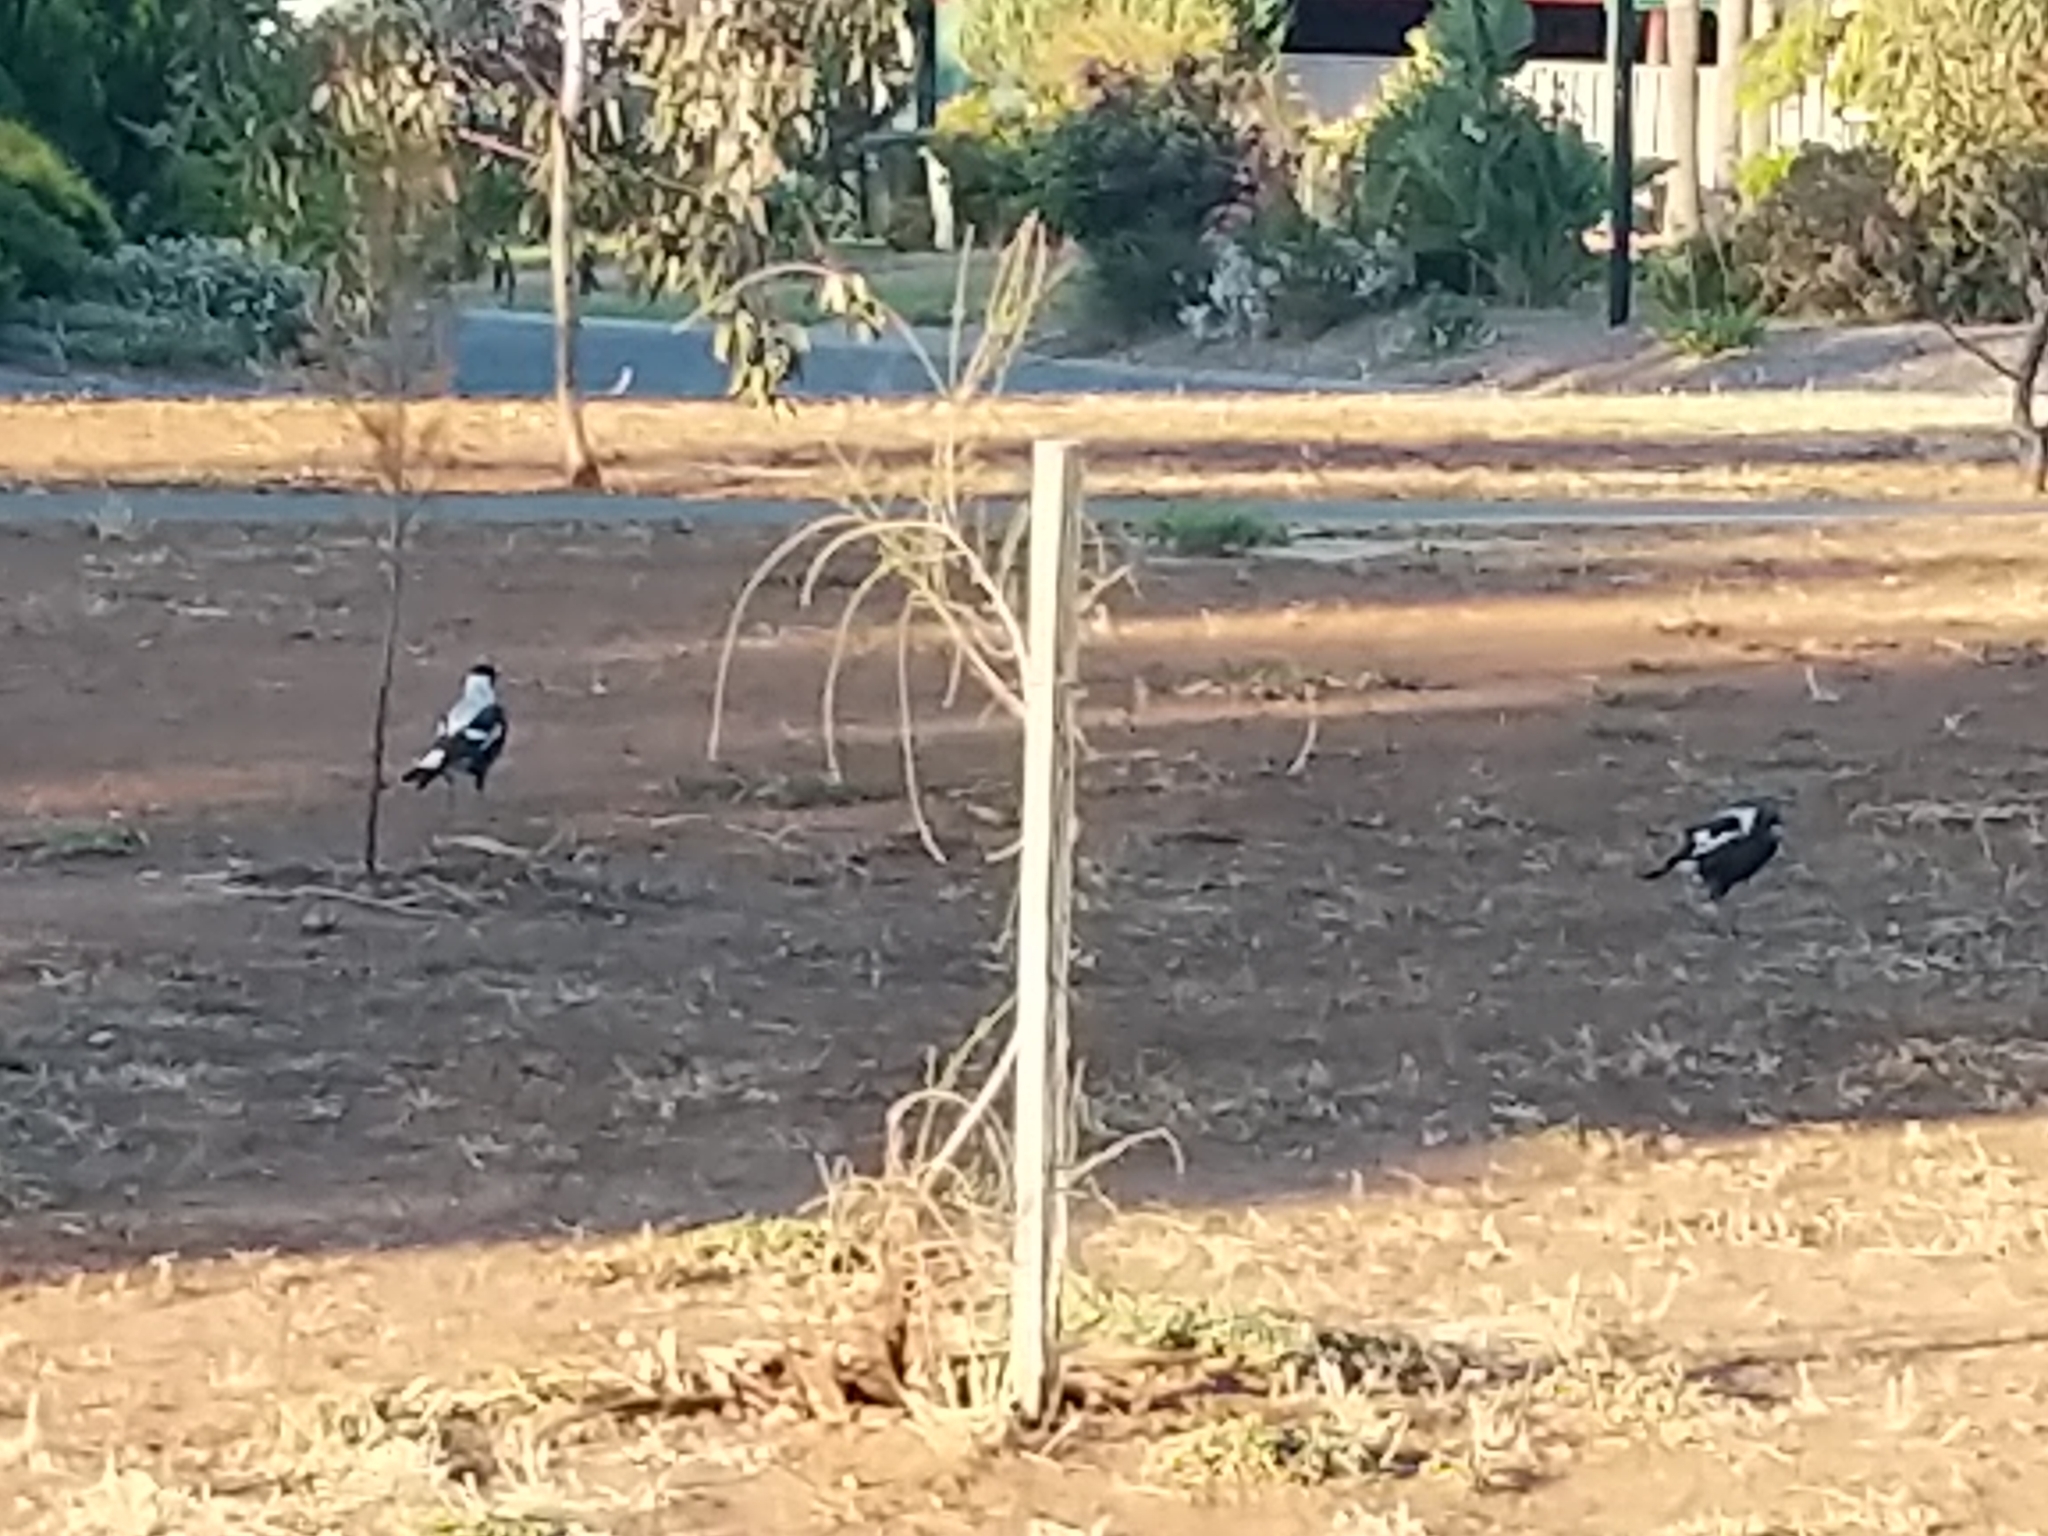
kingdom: Animalia
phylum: Chordata
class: Aves
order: Passeriformes
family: Cracticidae
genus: Gymnorhina
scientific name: Gymnorhina tibicen
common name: Australian magpie
